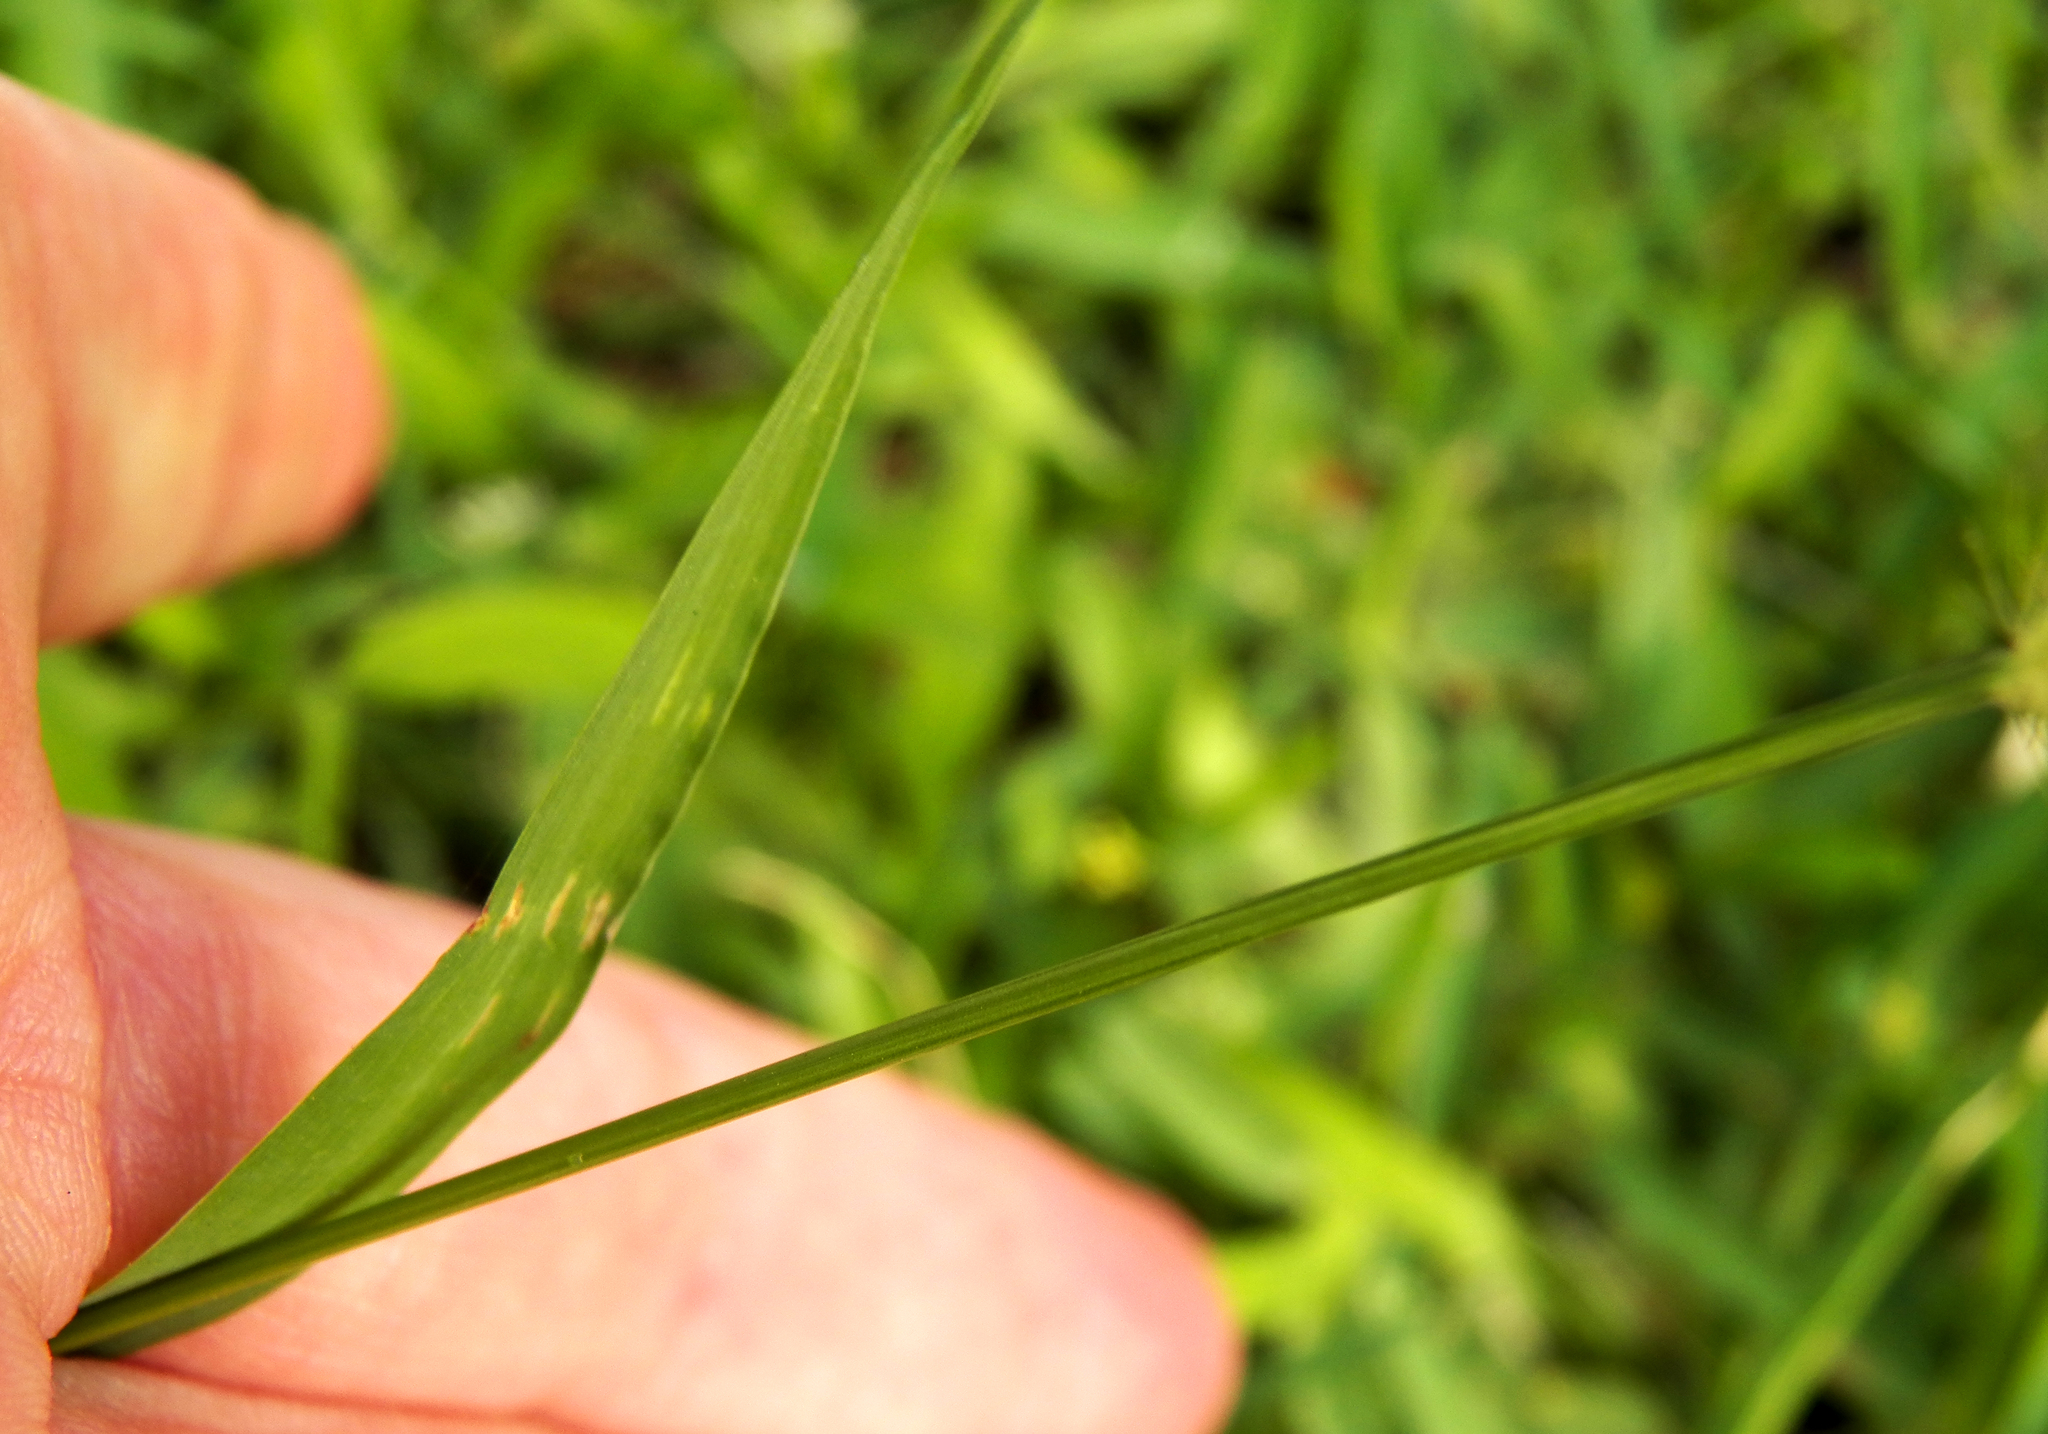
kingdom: Plantae
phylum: Tracheophyta
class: Liliopsida
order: Poales
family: Poaceae
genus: Setaria
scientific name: Setaria parviflora
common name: Knotroot bristle-grass
